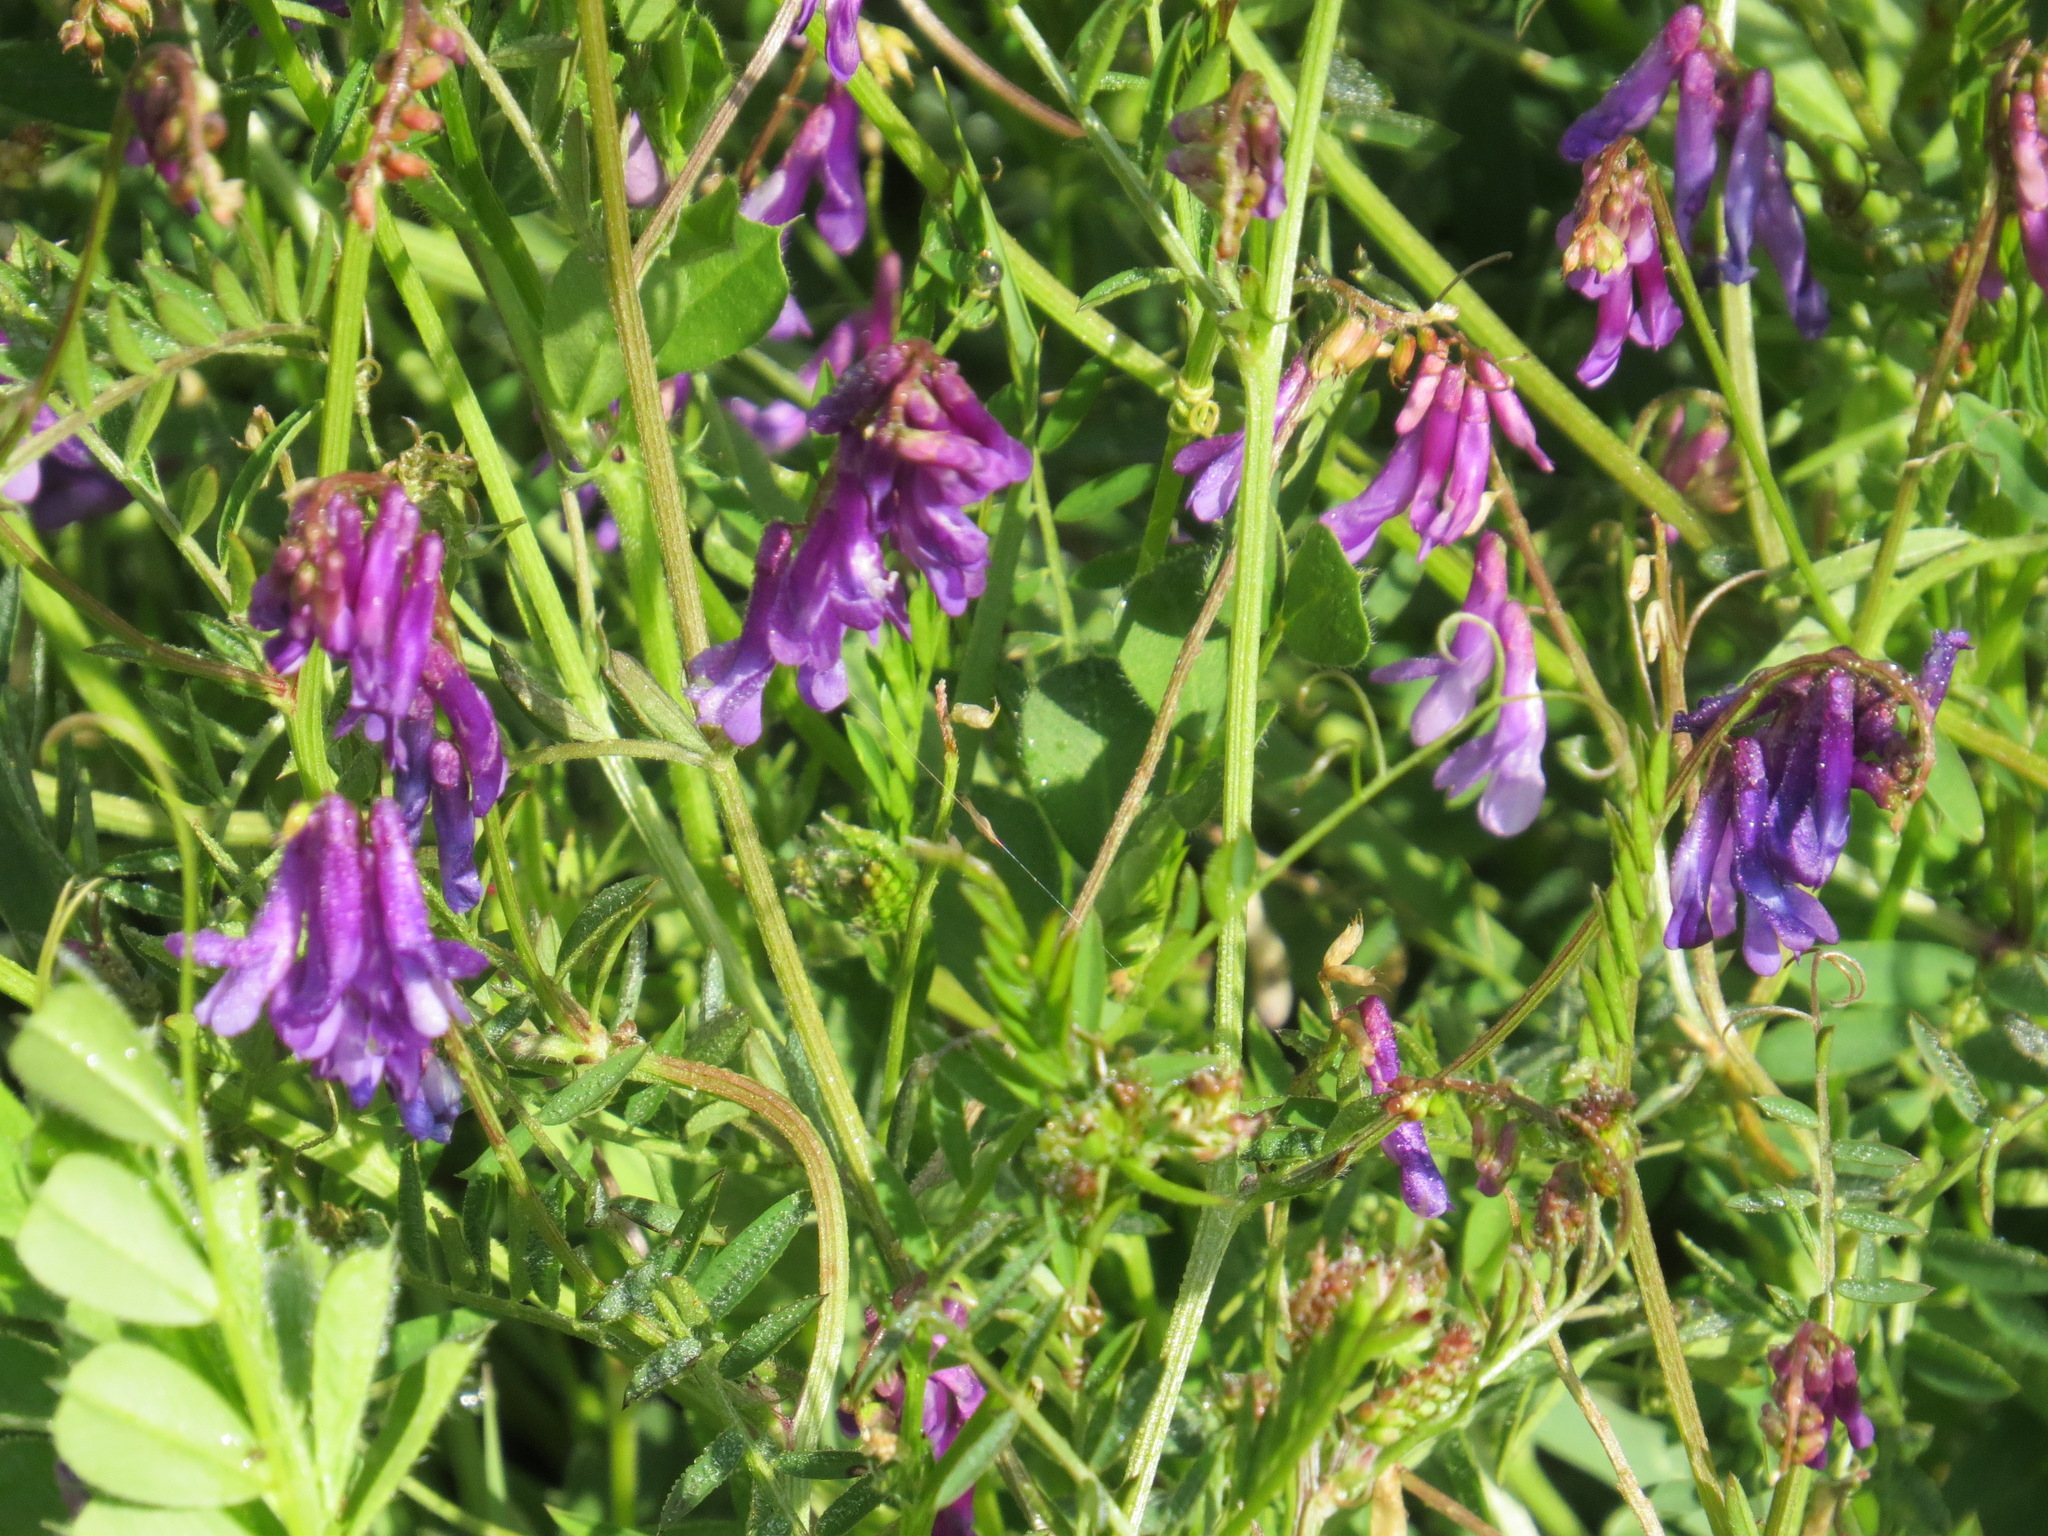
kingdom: Plantae
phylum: Tracheophyta
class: Magnoliopsida
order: Fabales
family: Fabaceae
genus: Vicia
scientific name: Vicia villosa
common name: Fodder vetch
